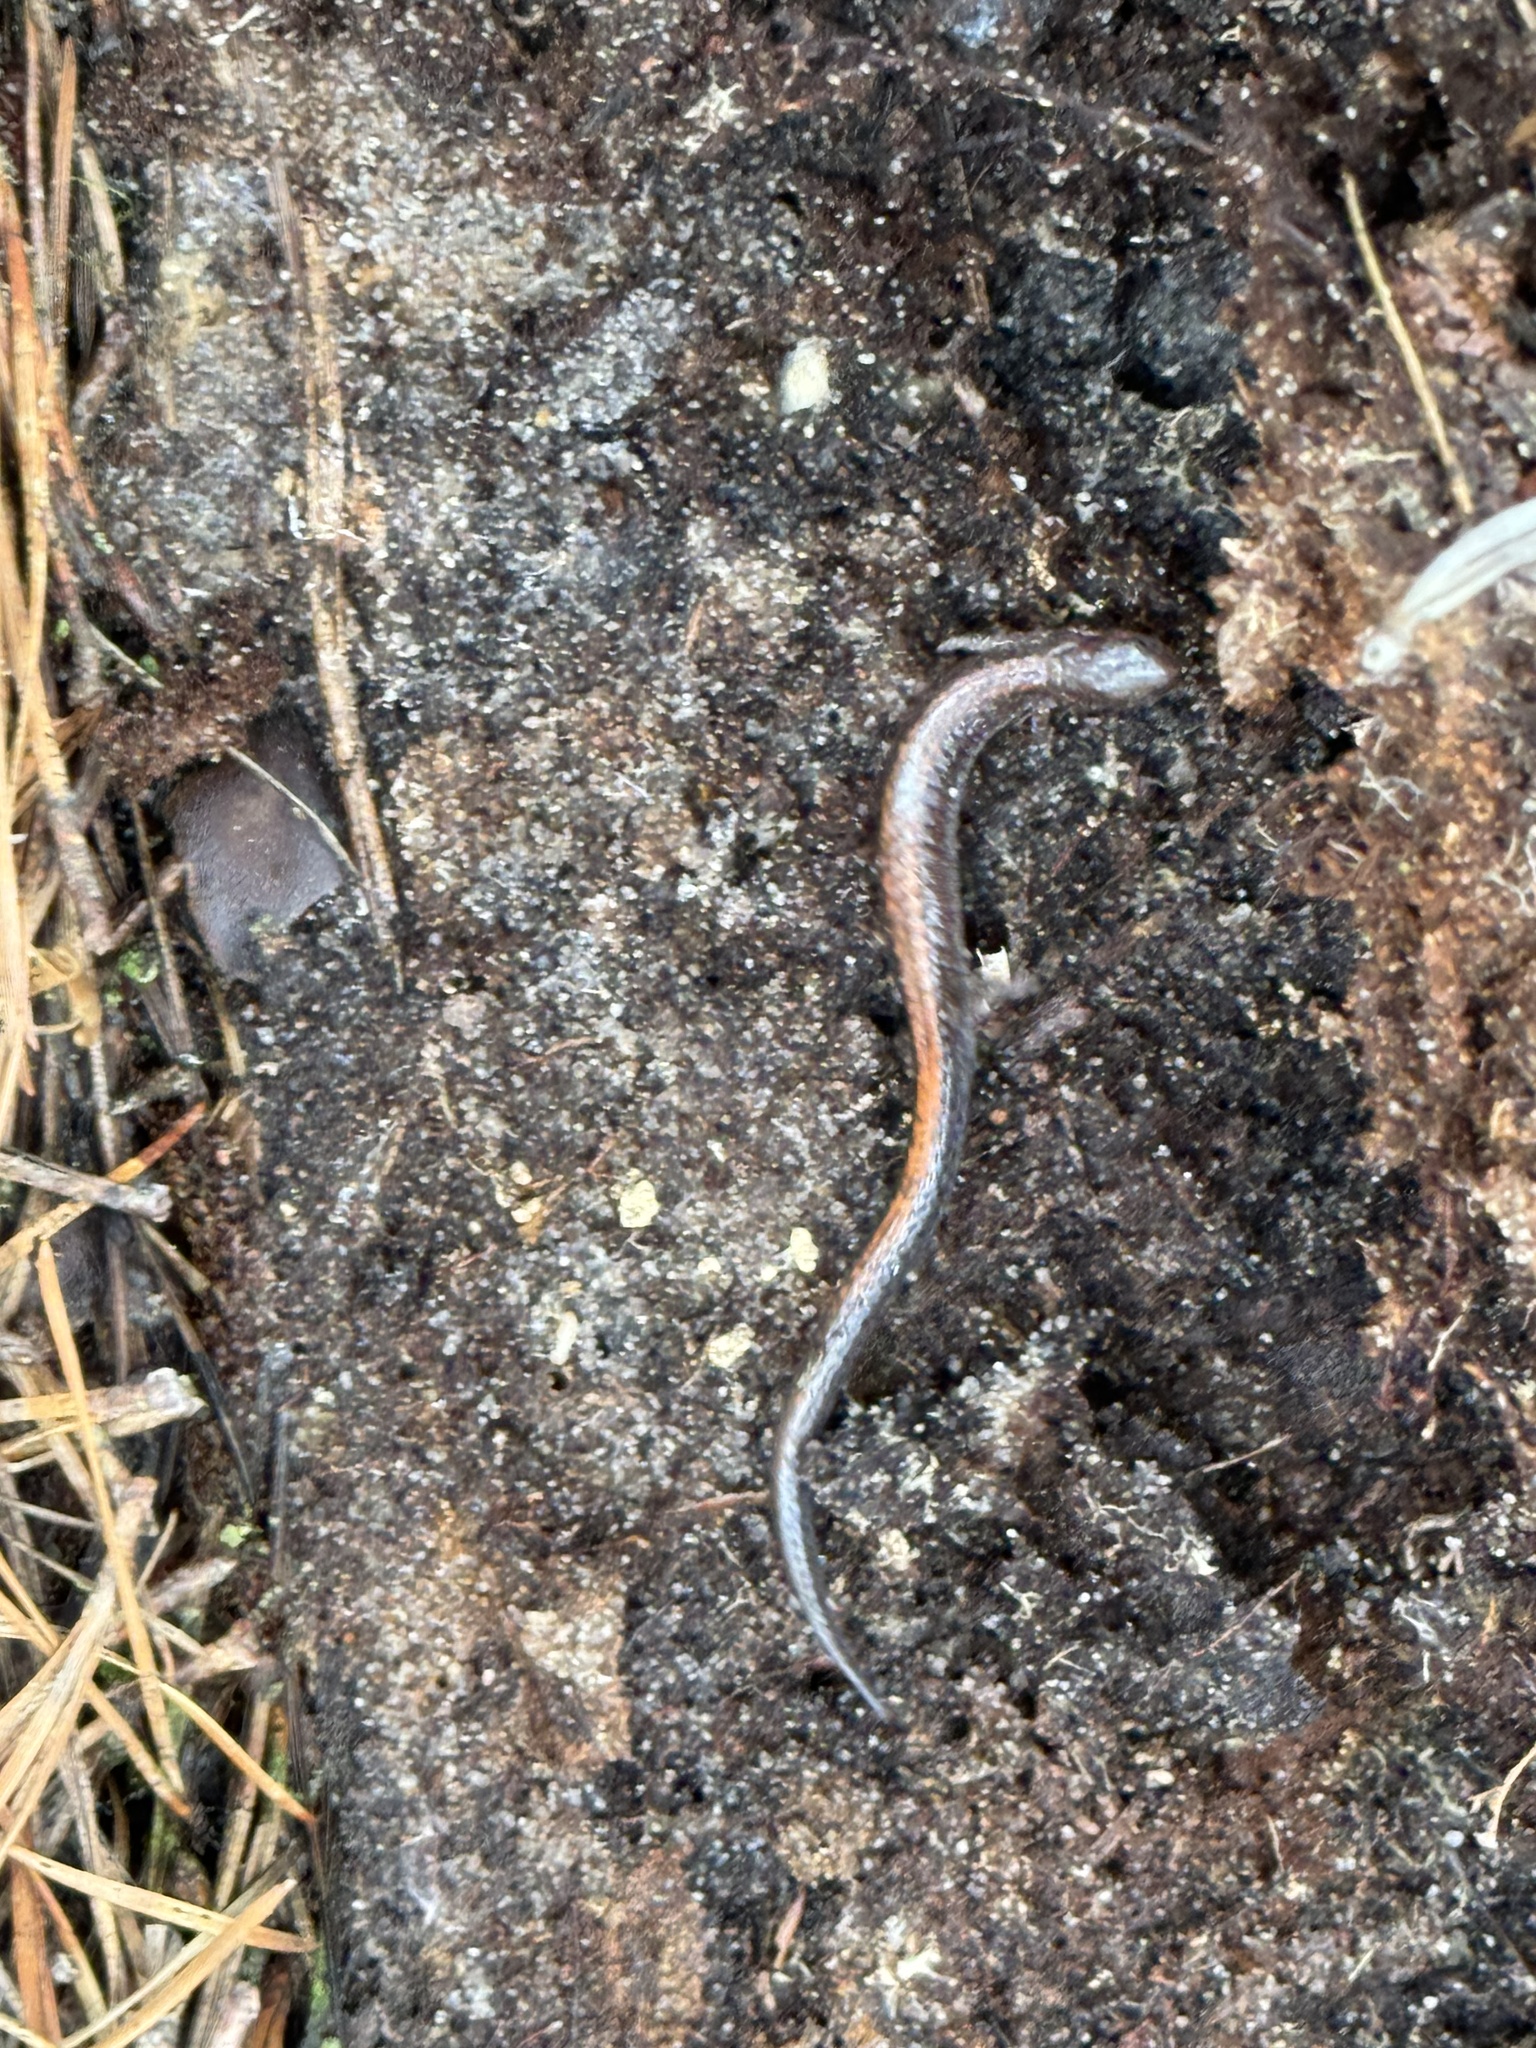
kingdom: Animalia
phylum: Chordata
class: Amphibia
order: Caudata
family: Plethodontidae
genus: Plethodon
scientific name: Plethodon cinereus
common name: Redback salamander
